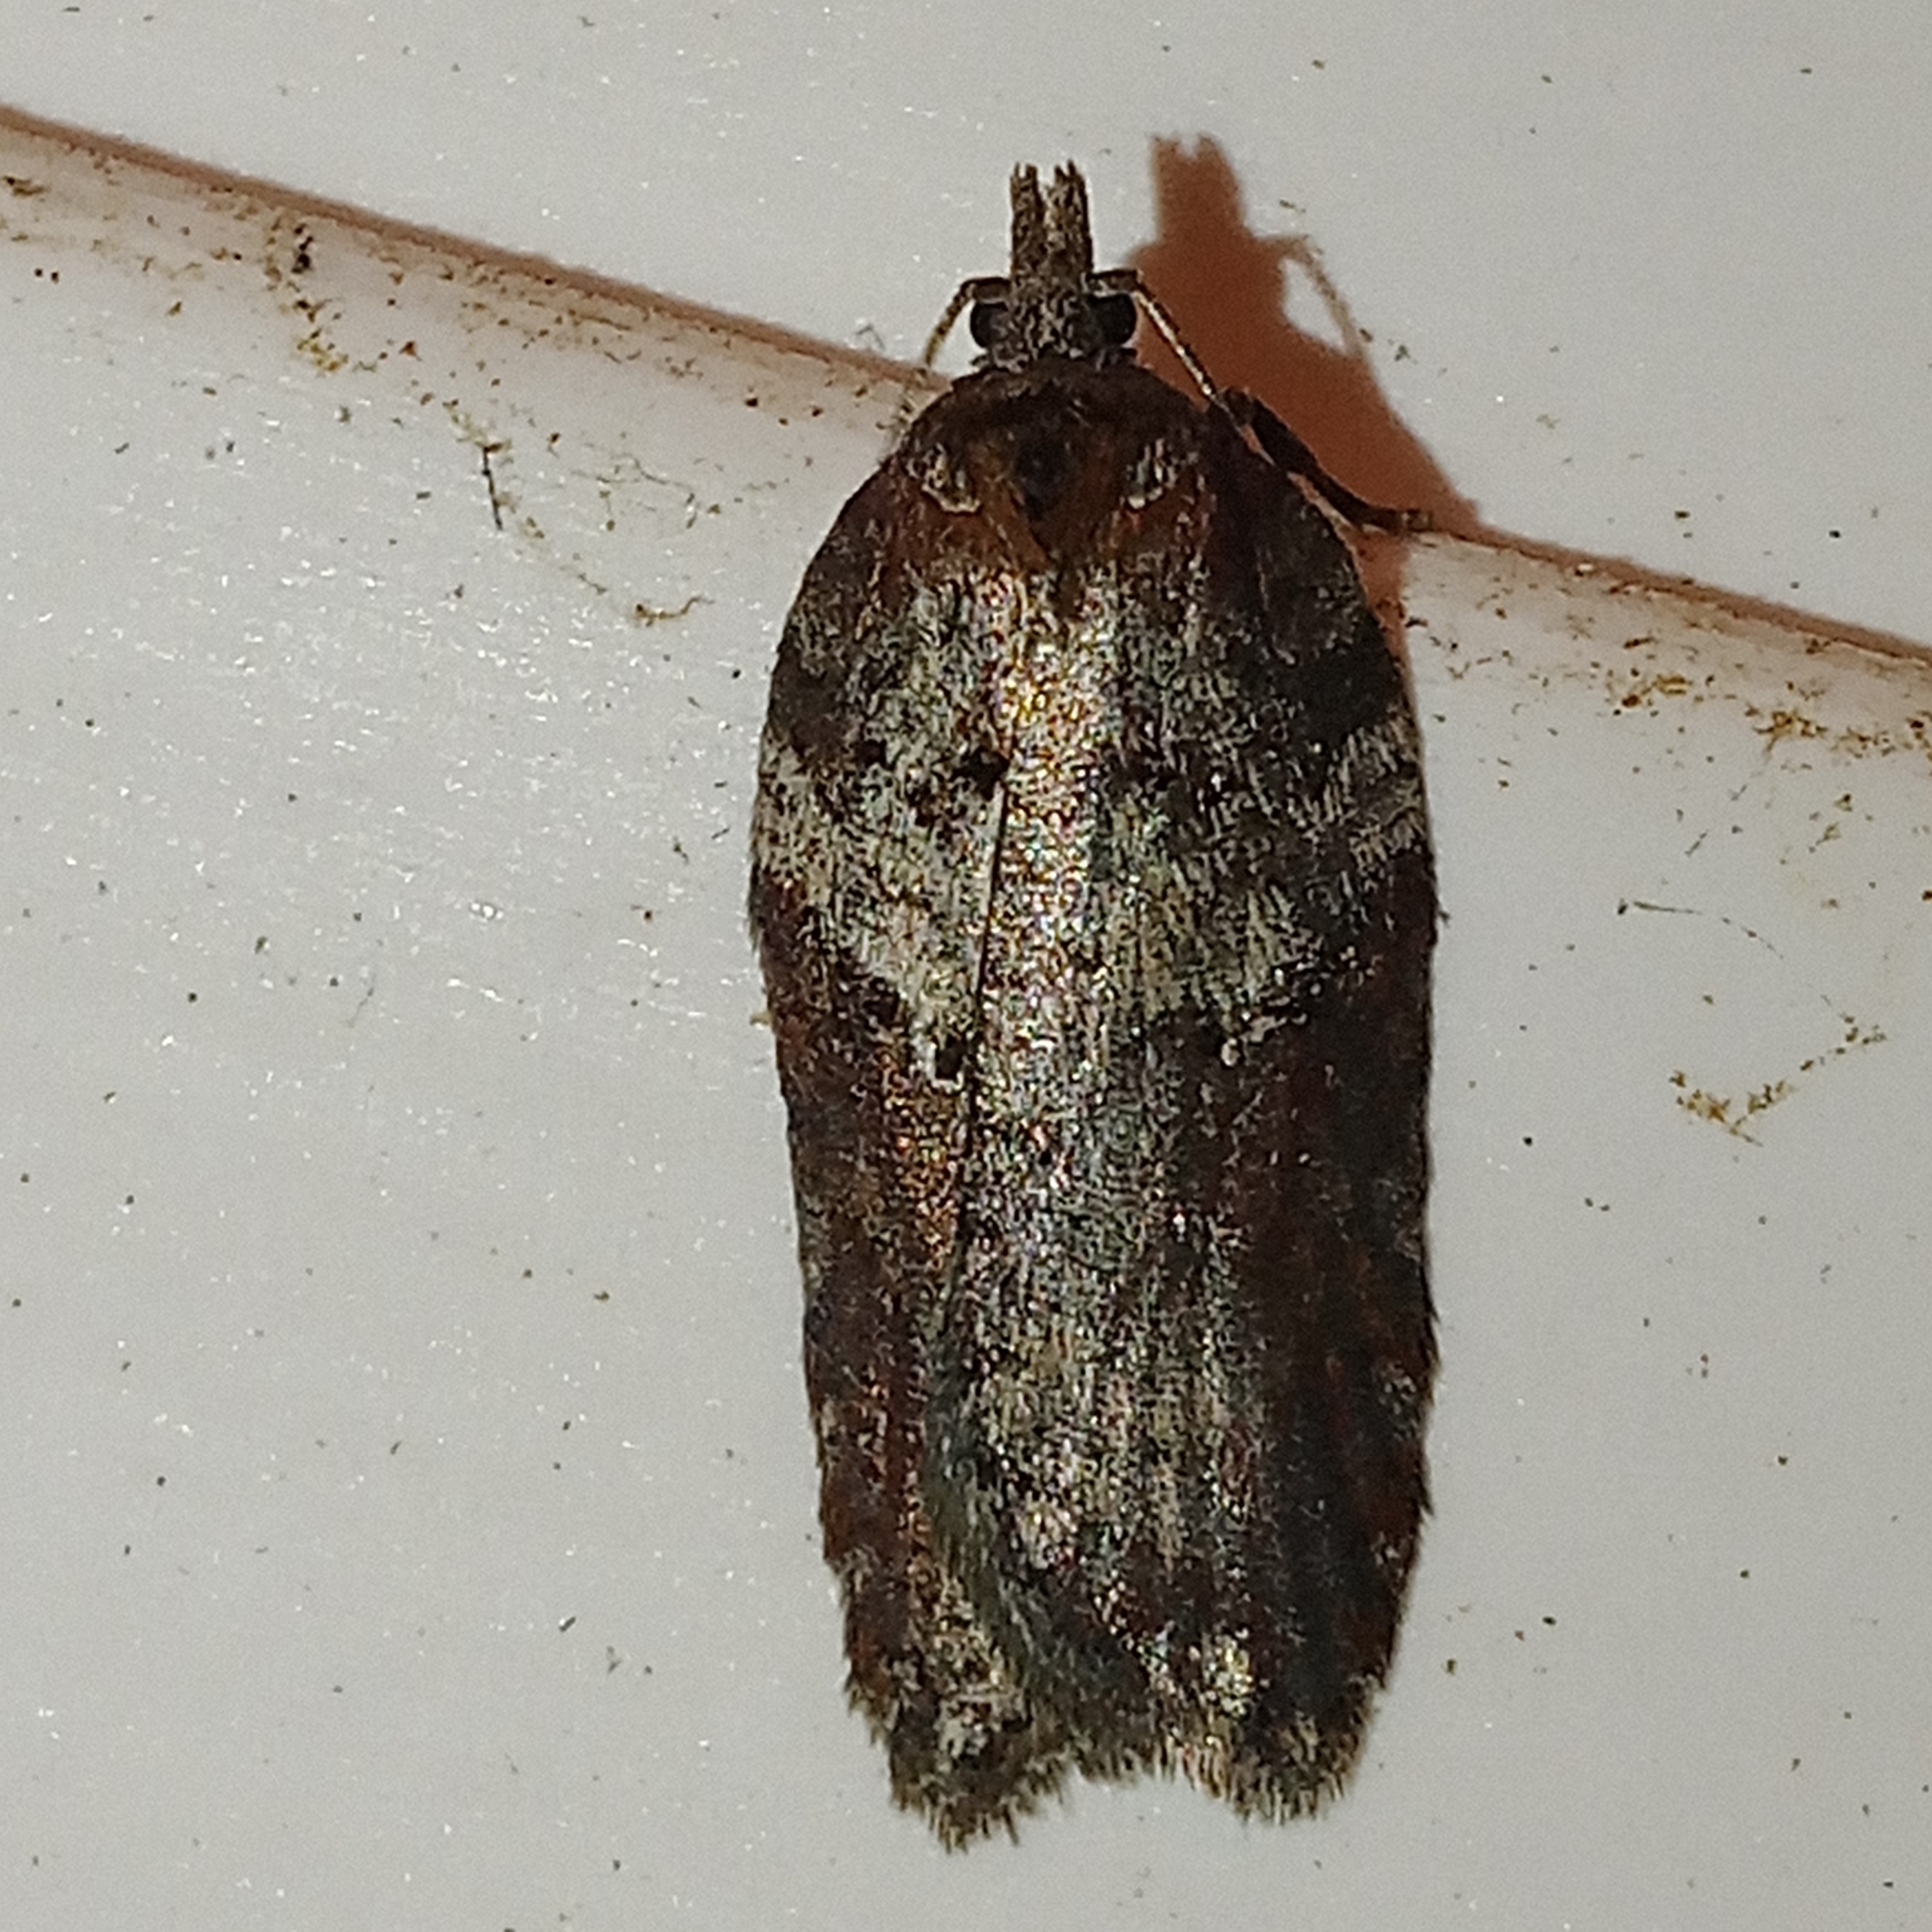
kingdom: Animalia
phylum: Arthropoda
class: Insecta
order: Lepidoptera
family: Tortricidae
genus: Acleris
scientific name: Acleris hastiana
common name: Sallow button
